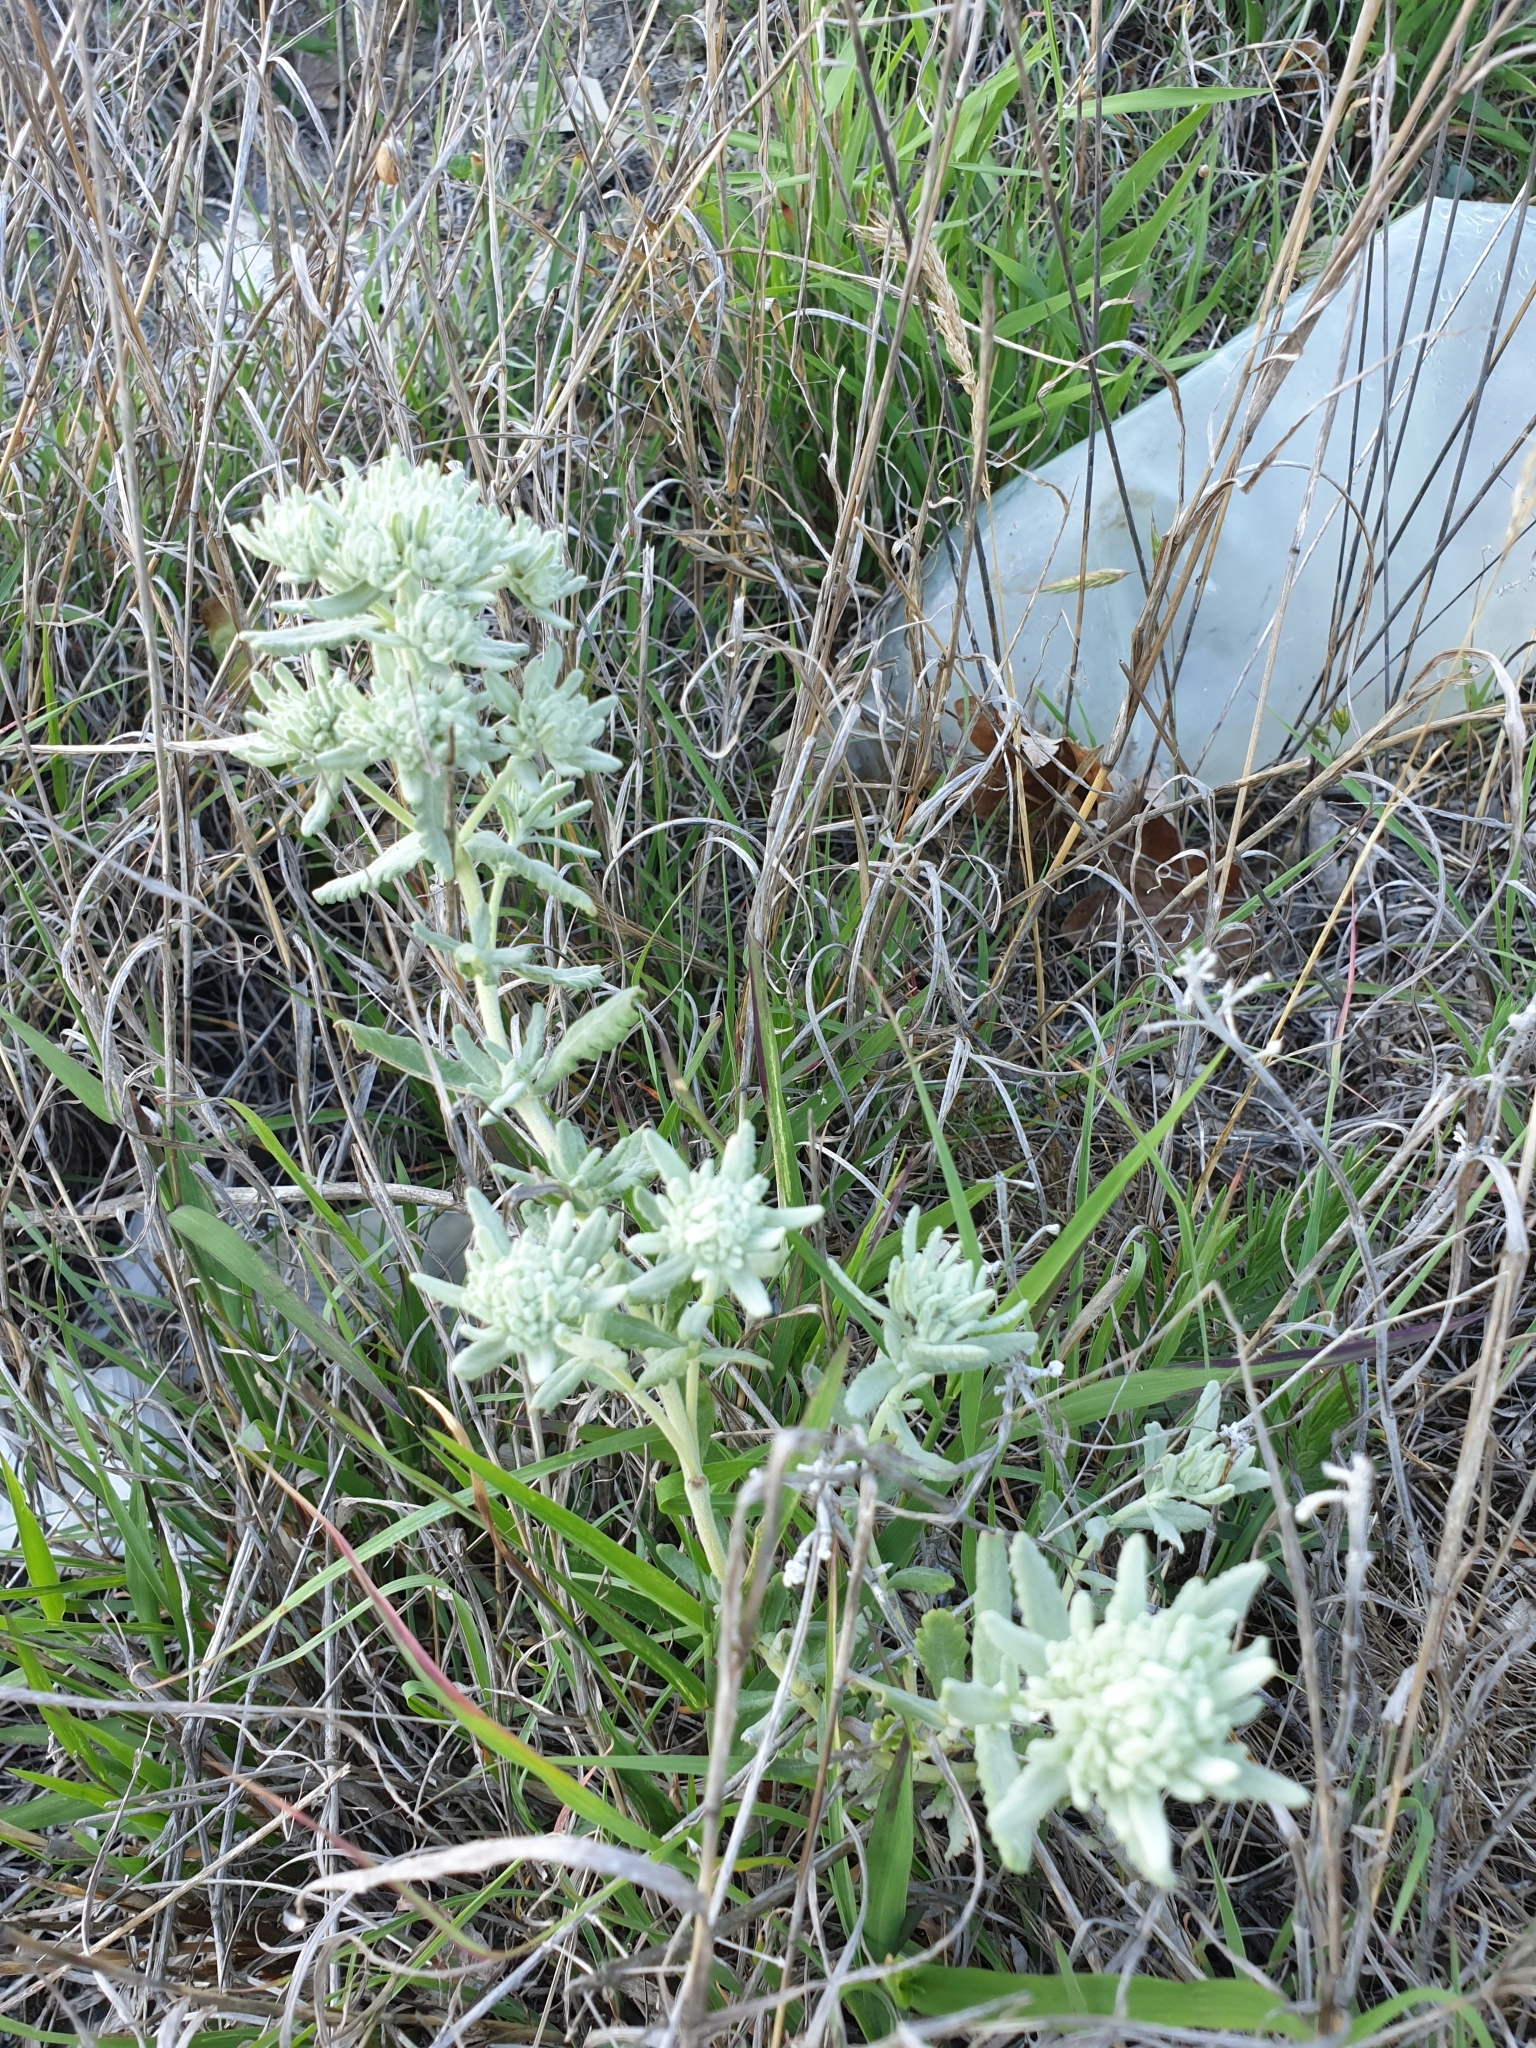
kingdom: Plantae
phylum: Tracheophyta
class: Magnoliopsida
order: Lamiales
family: Lamiaceae
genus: Teucrium
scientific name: Teucrium polium
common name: Poley
